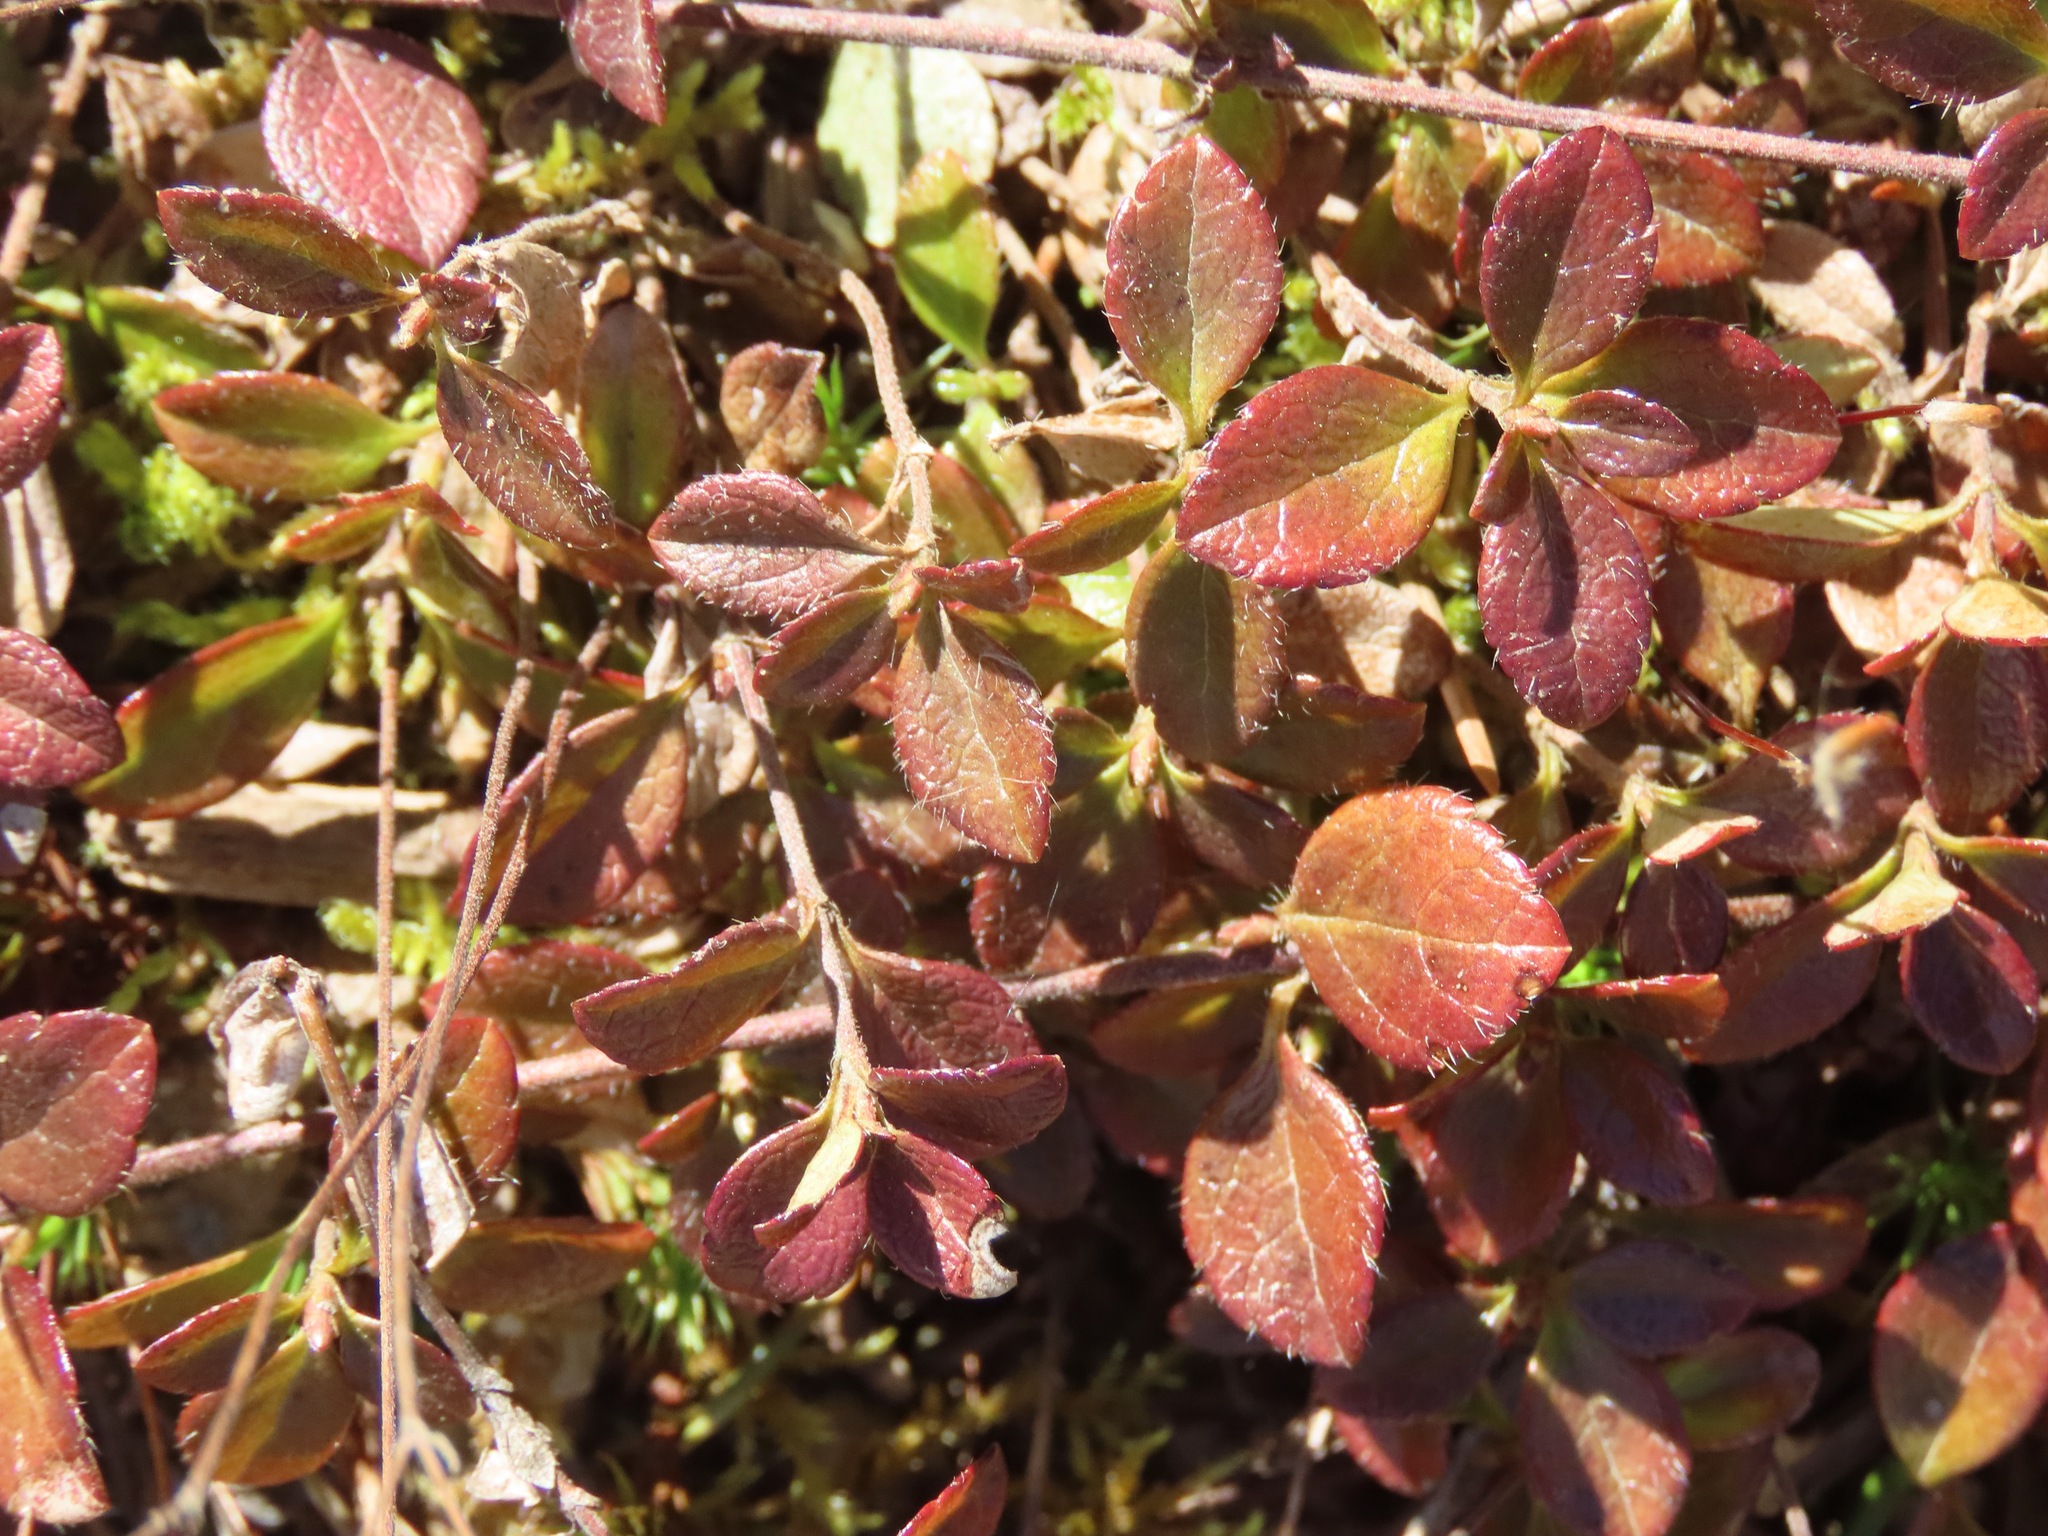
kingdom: Plantae
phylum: Tracheophyta
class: Magnoliopsida
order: Dipsacales
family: Caprifoliaceae
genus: Linnaea
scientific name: Linnaea borealis
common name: Twinflower
